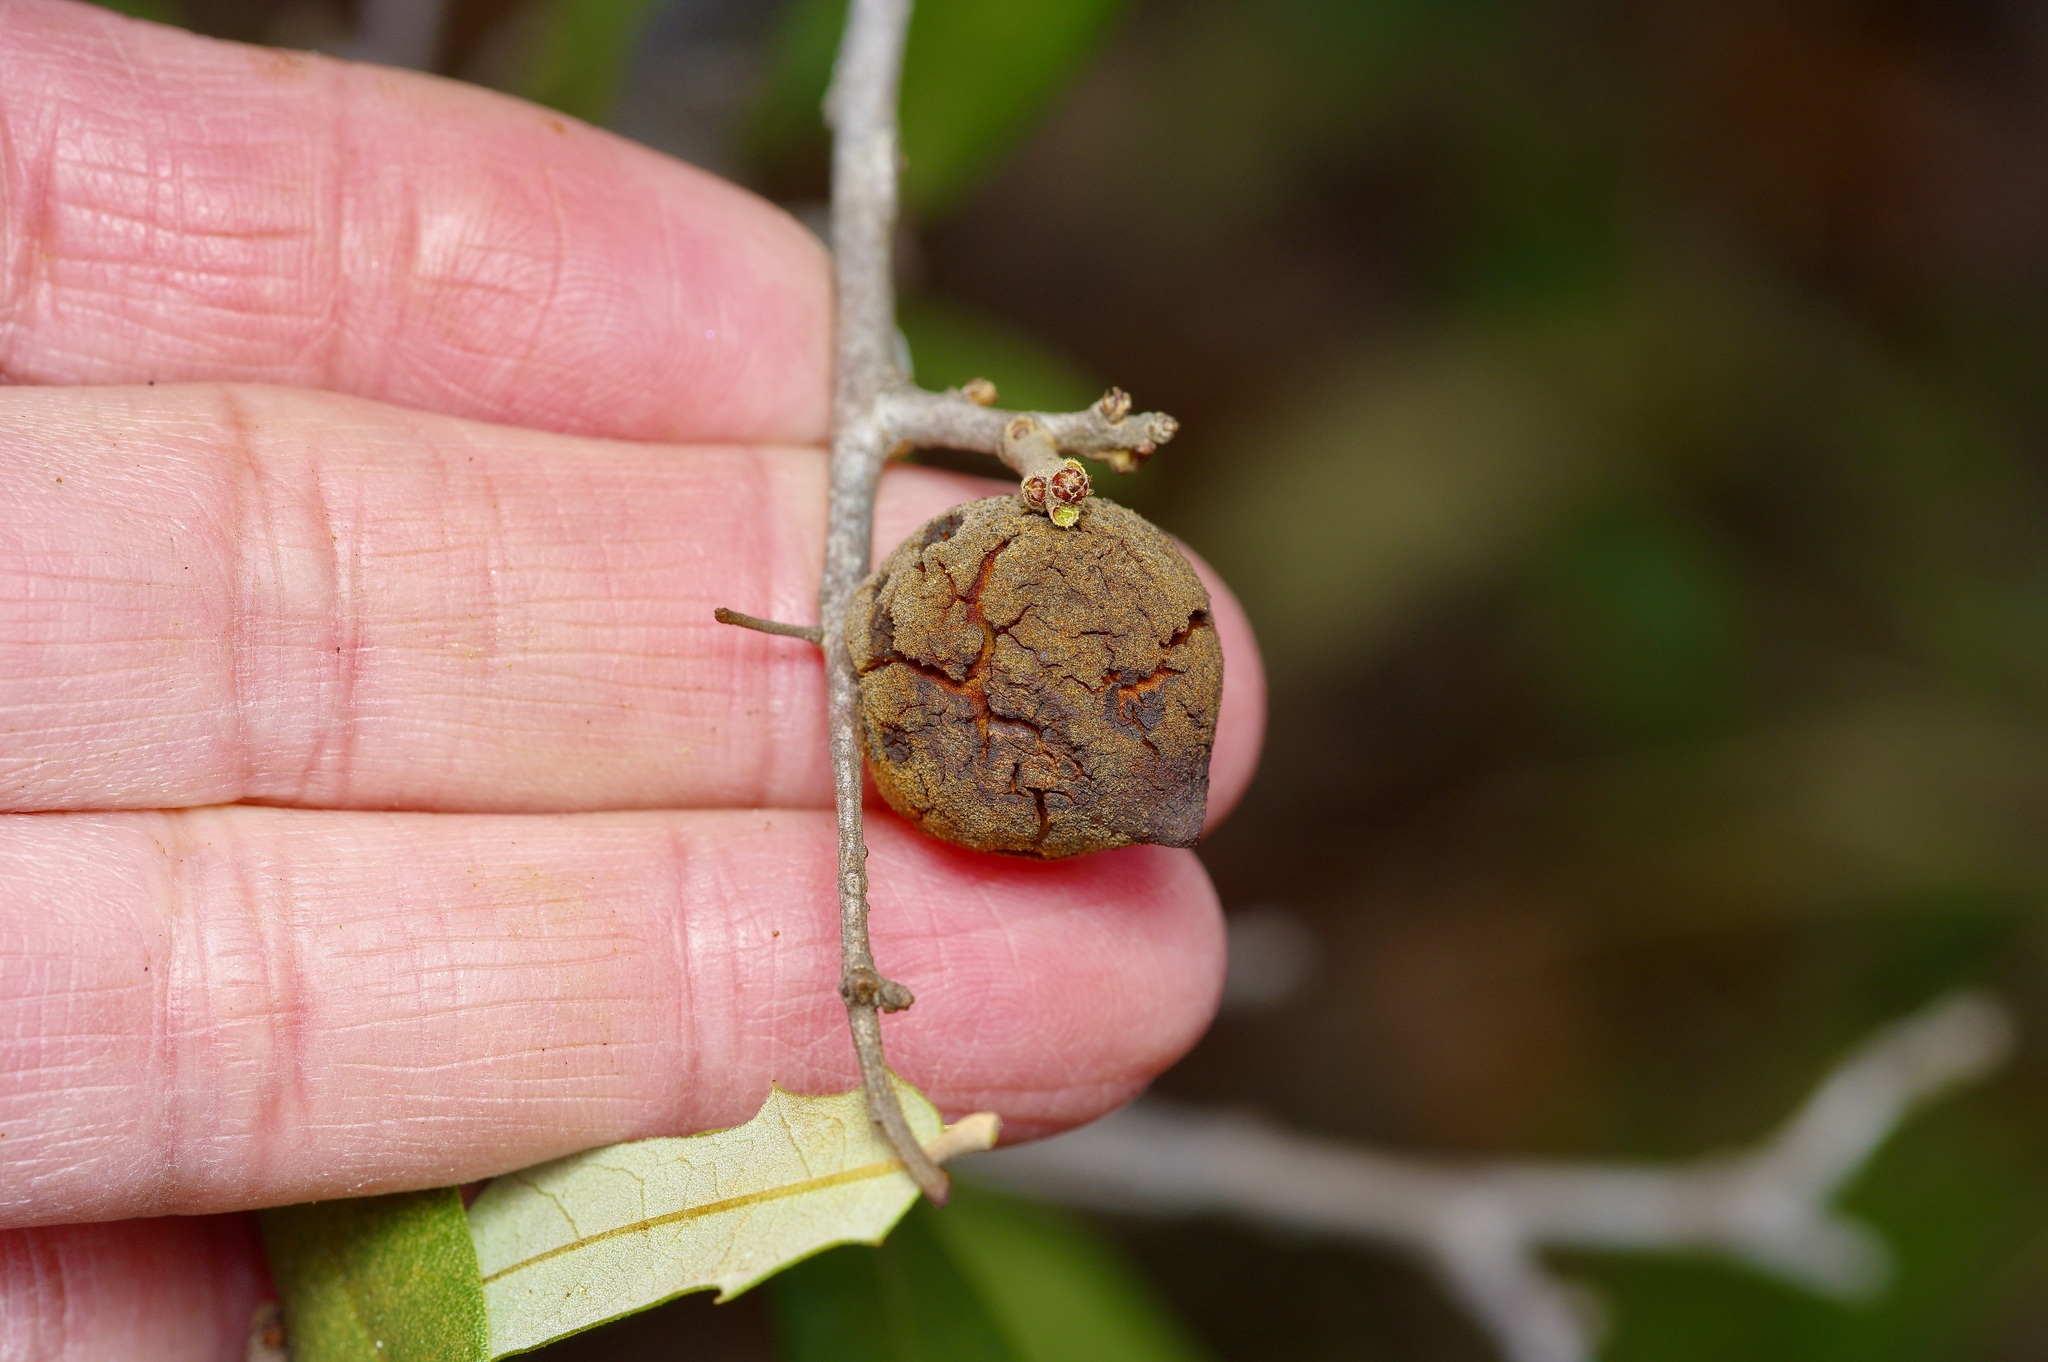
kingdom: Animalia
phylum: Arthropoda
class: Insecta
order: Hymenoptera
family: Cynipidae
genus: Disholcaspis
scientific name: Disholcaspis
